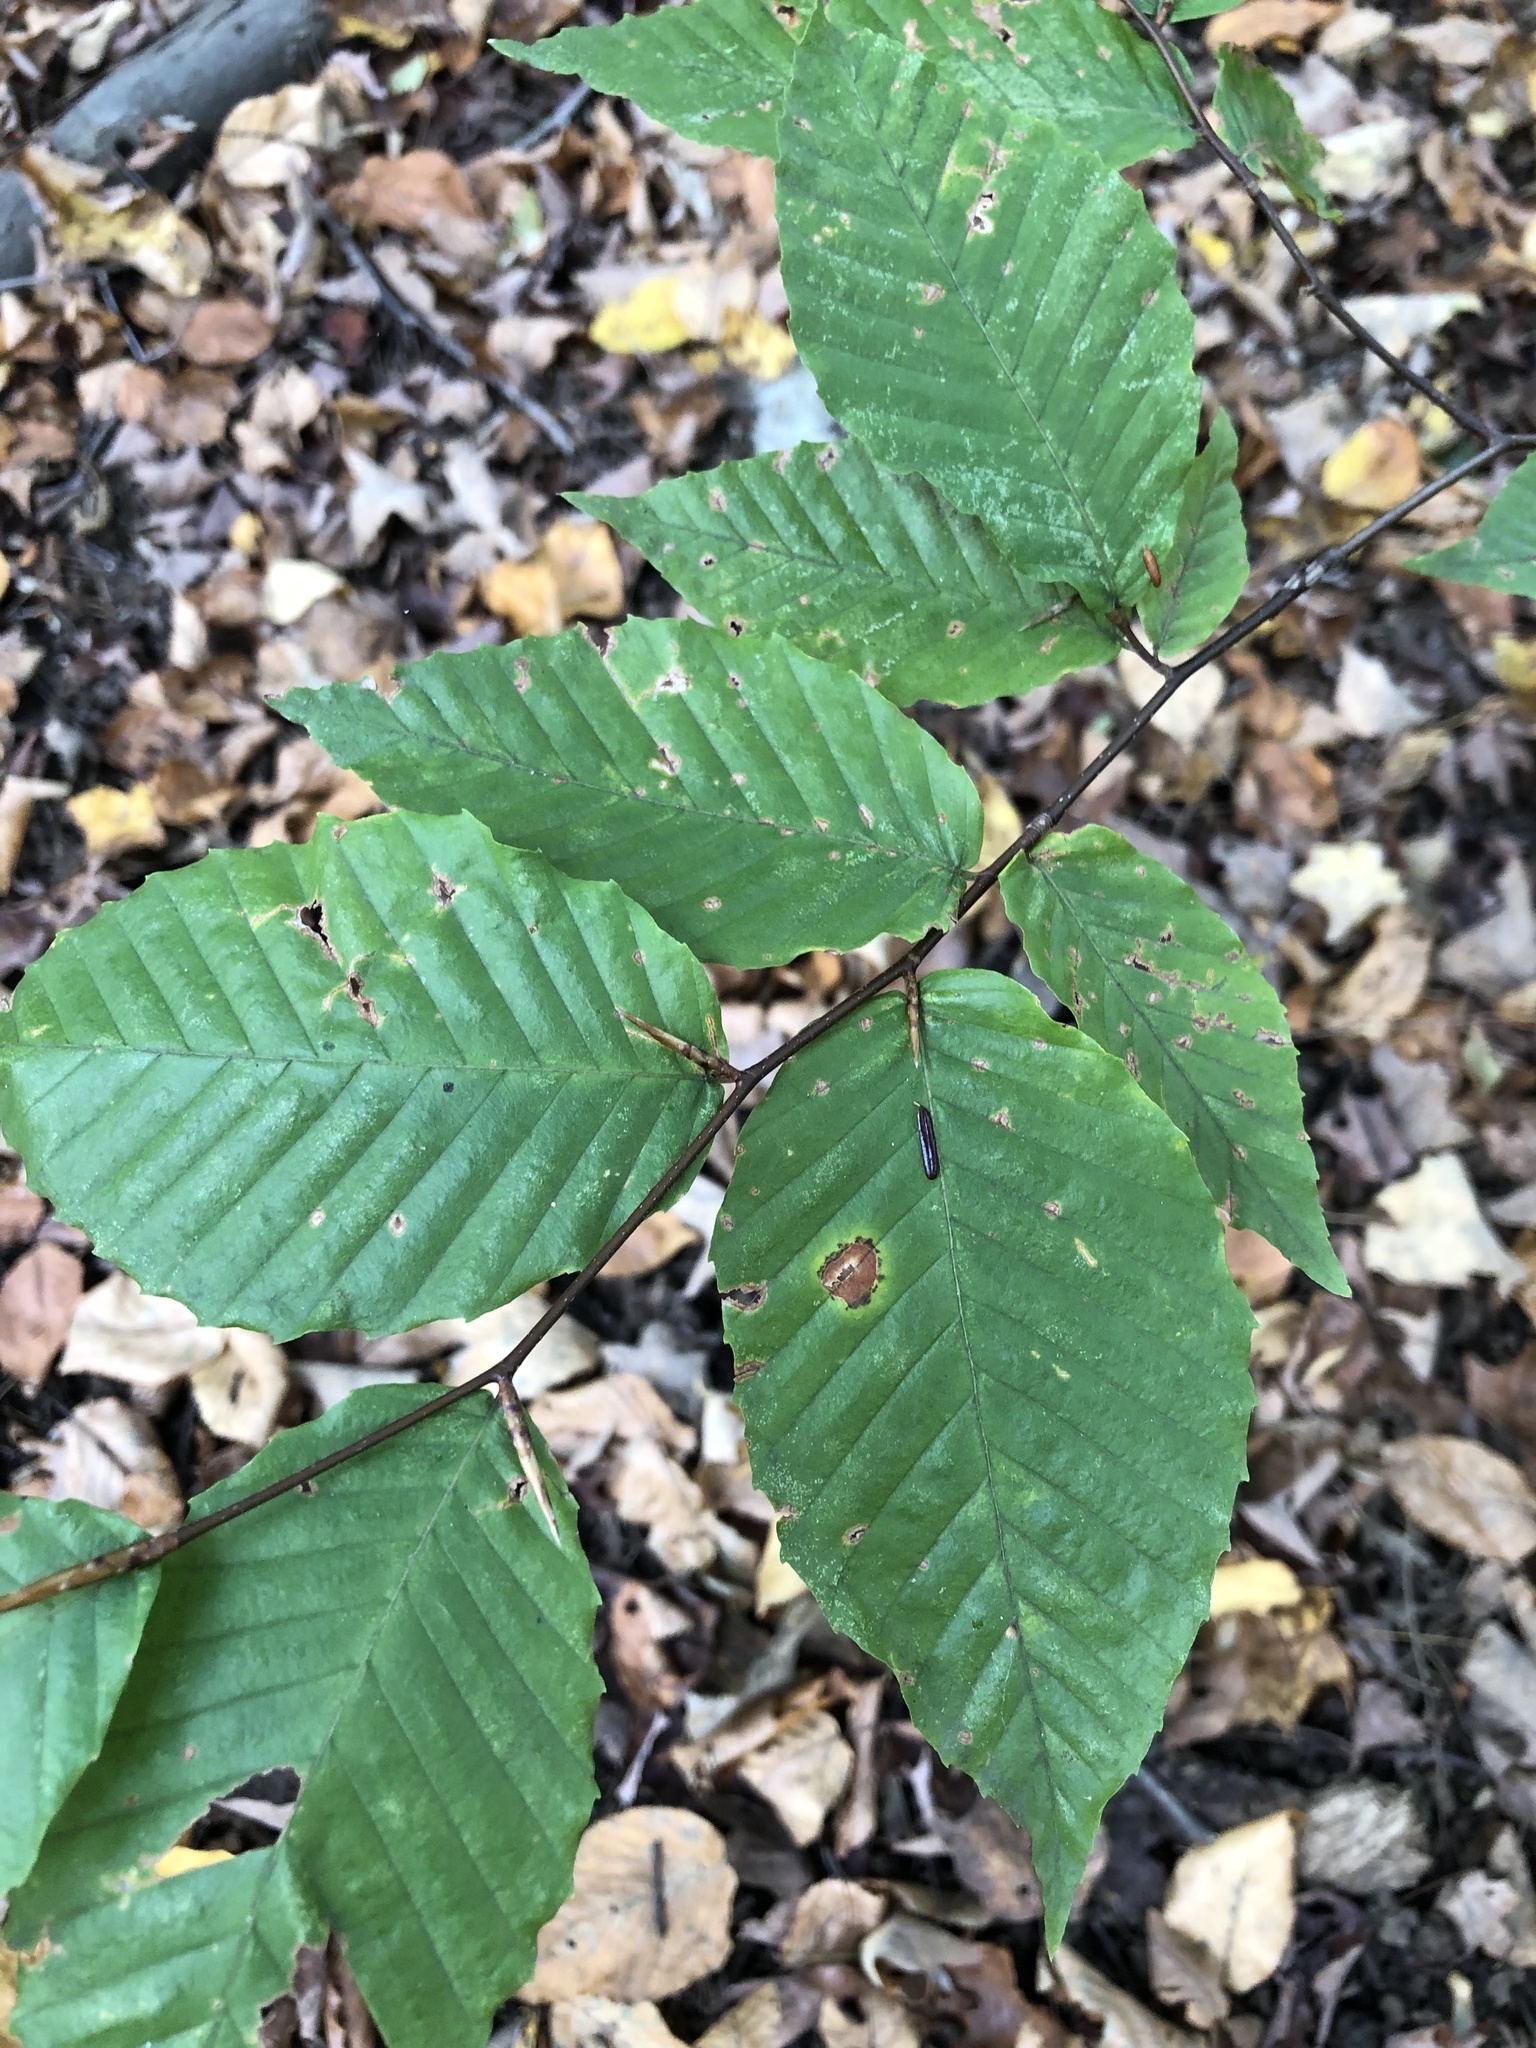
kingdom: Plantae
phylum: Tracheophyta
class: Magnoliopsida
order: Fagales
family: Fagaceae
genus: Fagus
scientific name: Fagus grandifolia
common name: American beech
